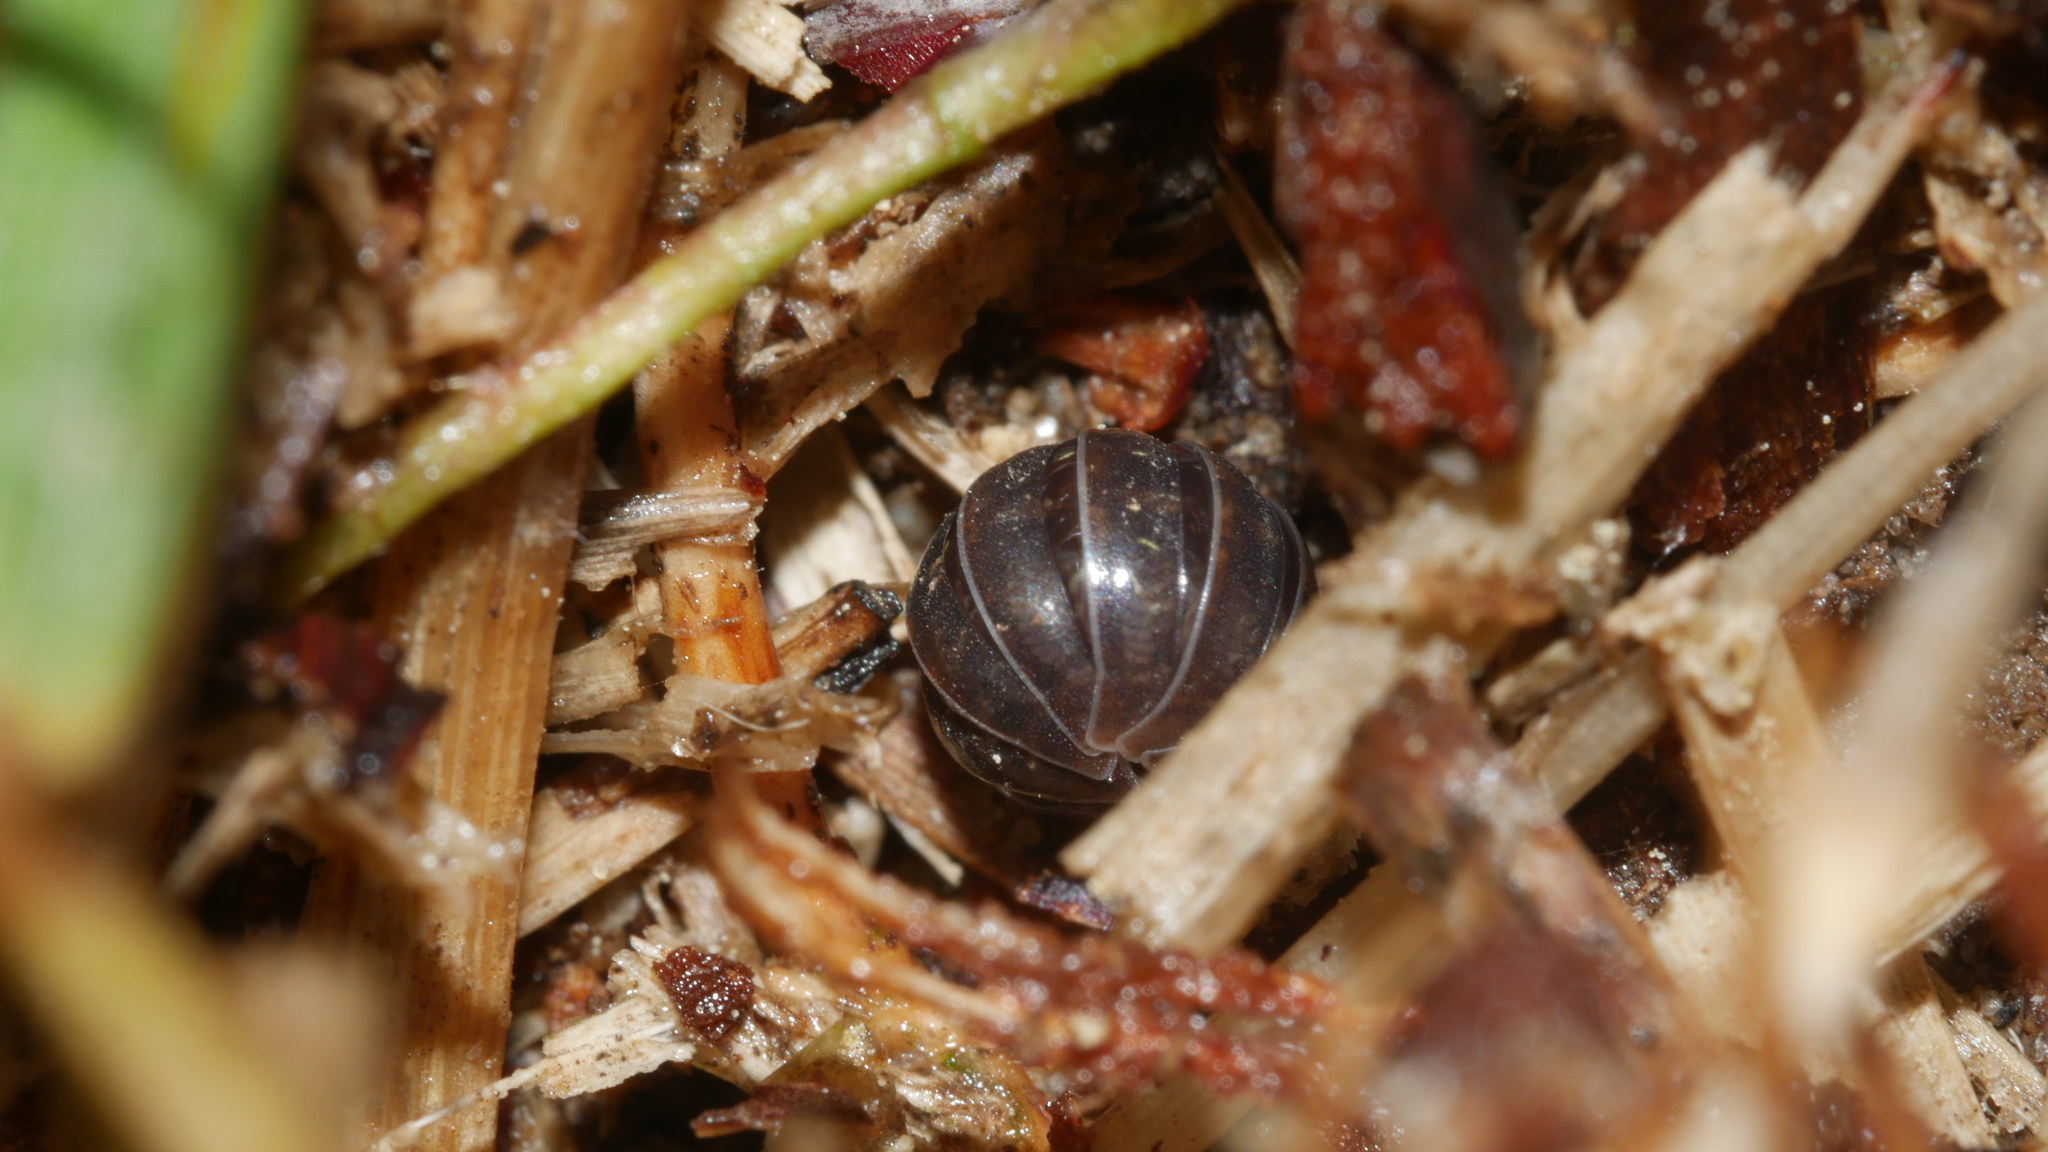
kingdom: Animalia
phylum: Arthropoda
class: Malacostraca
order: Isopoda
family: Armadillidiidae
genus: Armadillidium
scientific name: Armadillidium vulgare
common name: Common pill woodlouse
